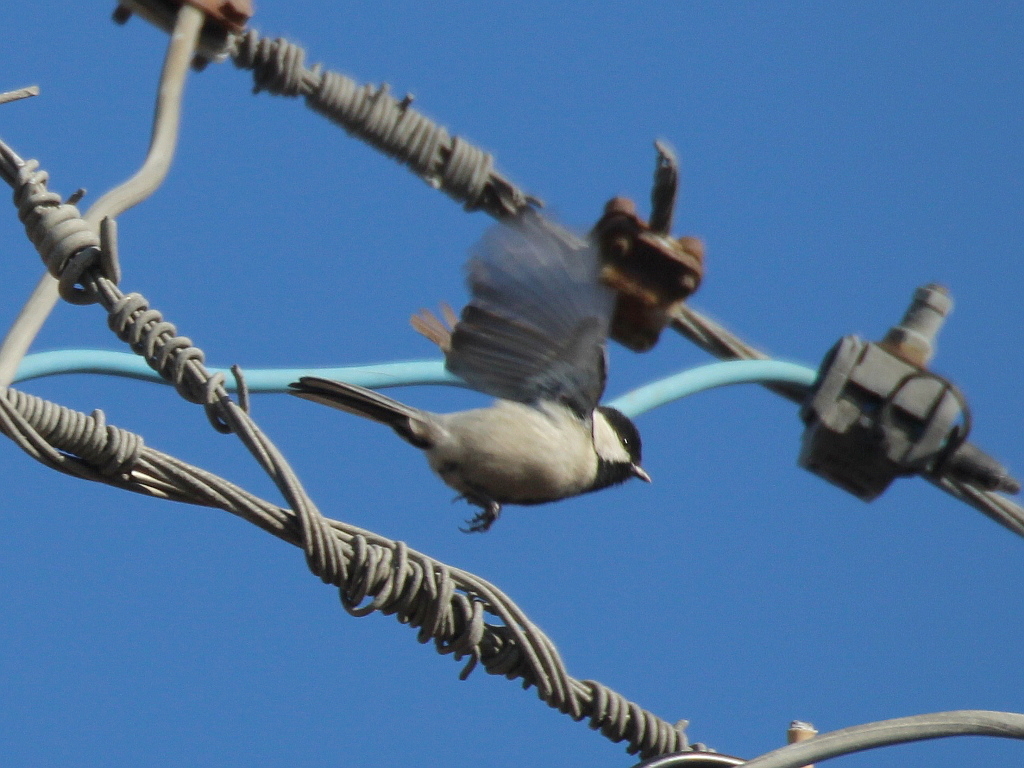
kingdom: Animalia
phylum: Chordata
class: Aves
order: Passeriformes
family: Paridae
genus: Parus
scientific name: Parus minor
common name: Japanese tit
